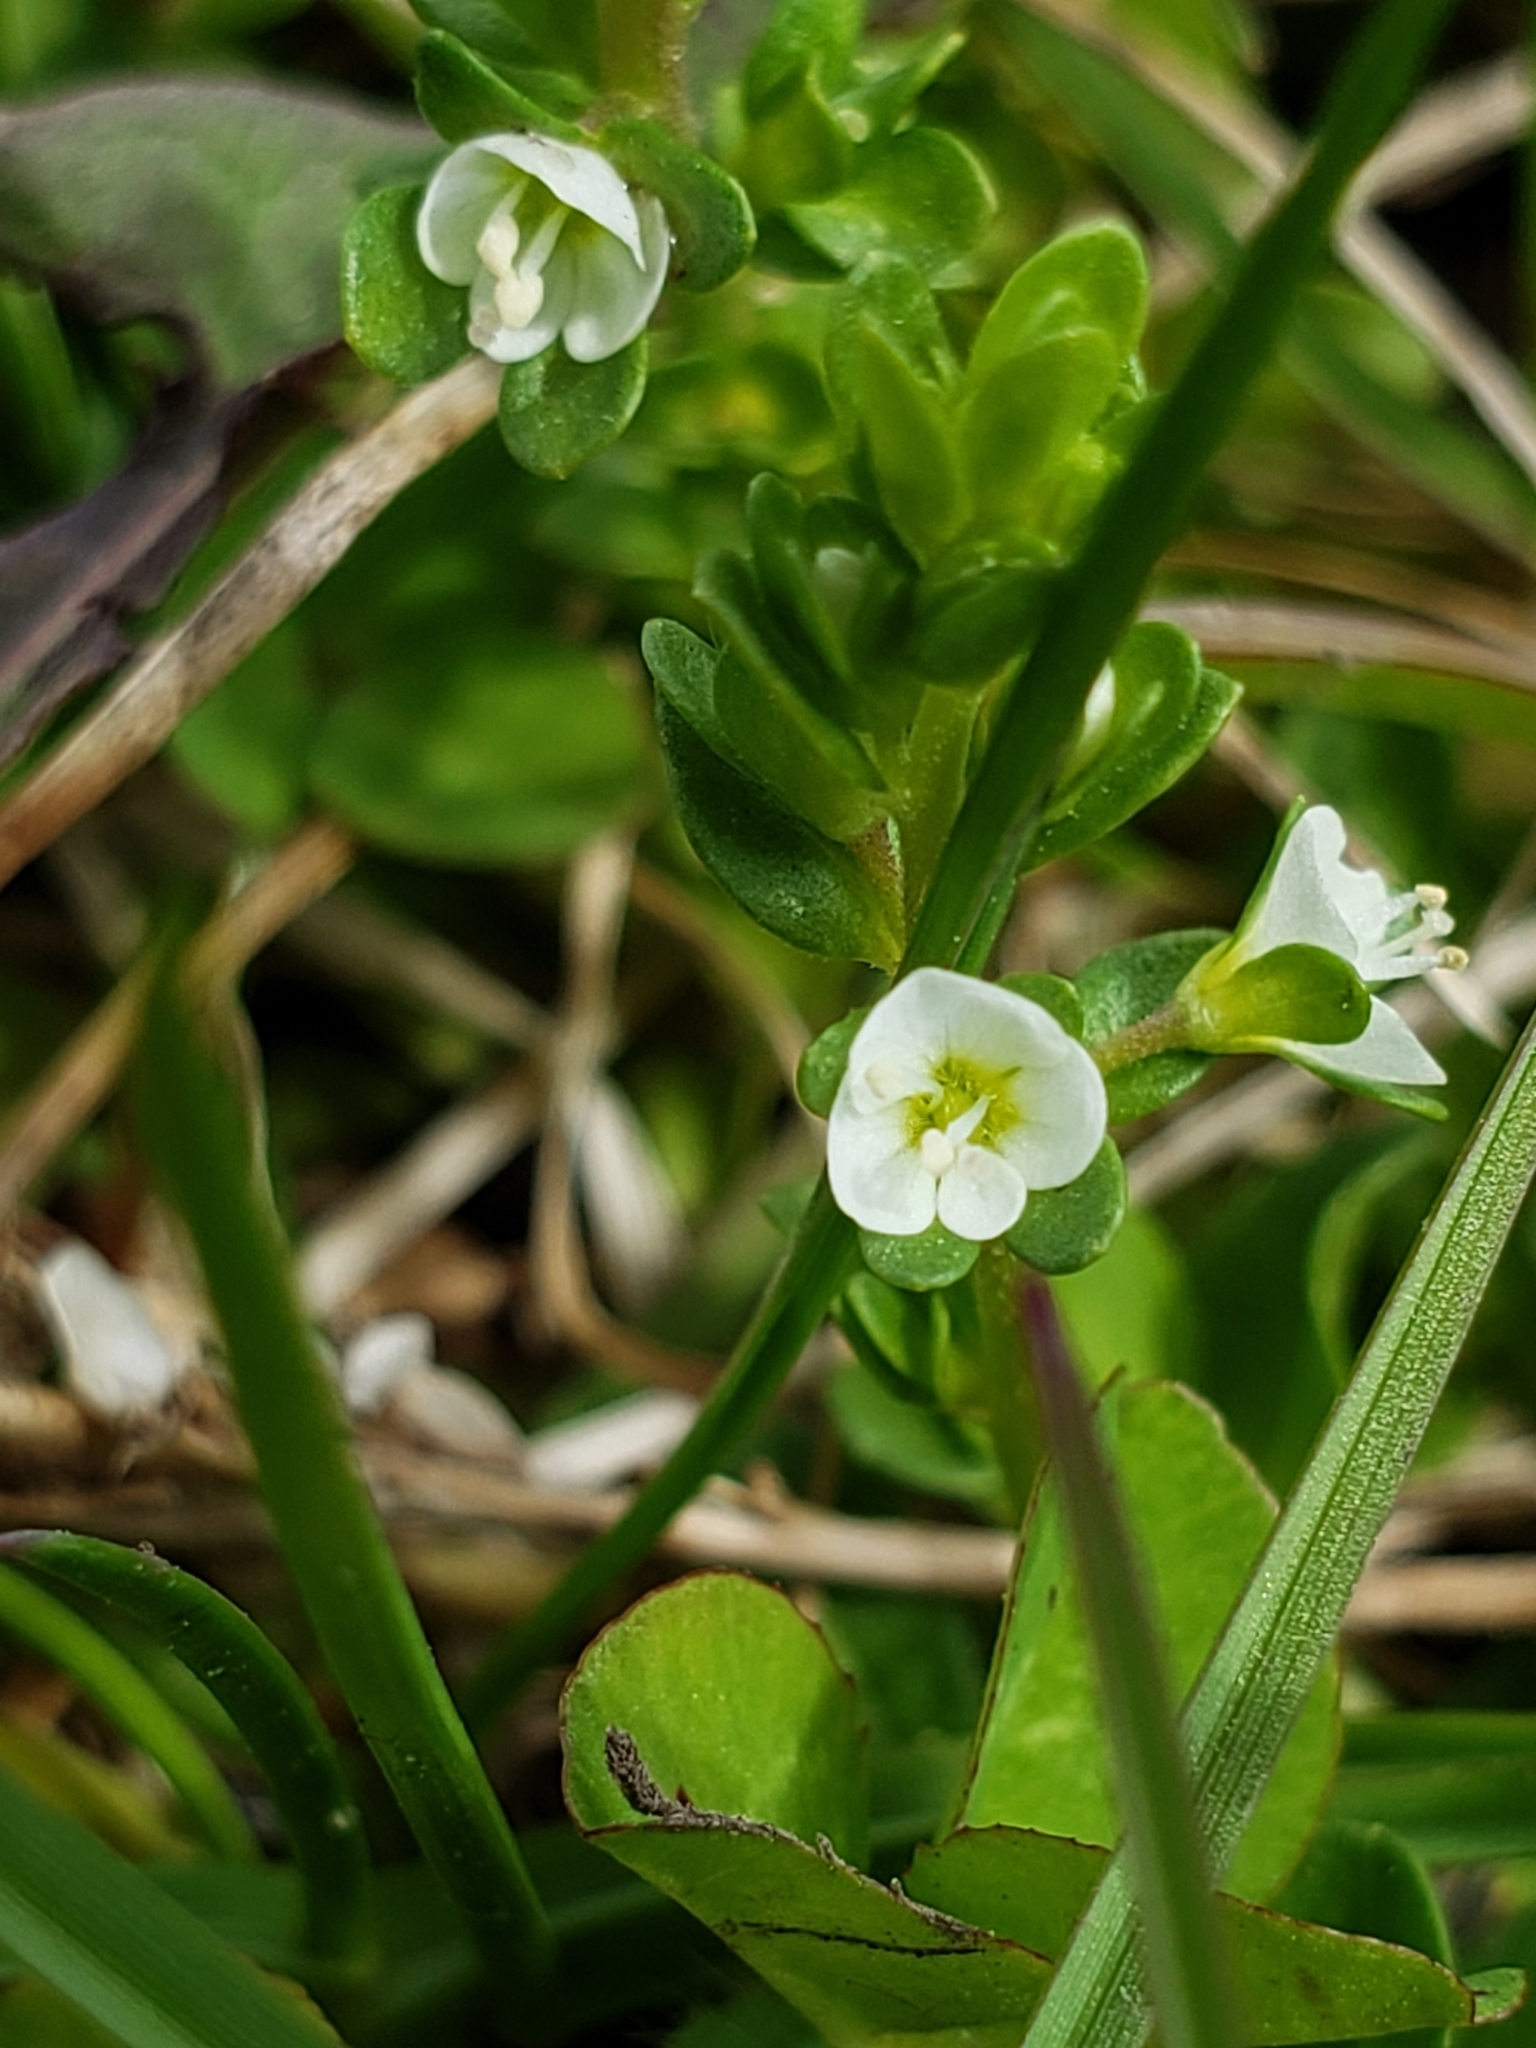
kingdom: Plantae
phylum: Tracheophyta
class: Magnoliopsida
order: Lamiales
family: Plantaginaceae
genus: Veronica
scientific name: Veronica serpyllifolia
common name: Thyme-leaved speedwell
